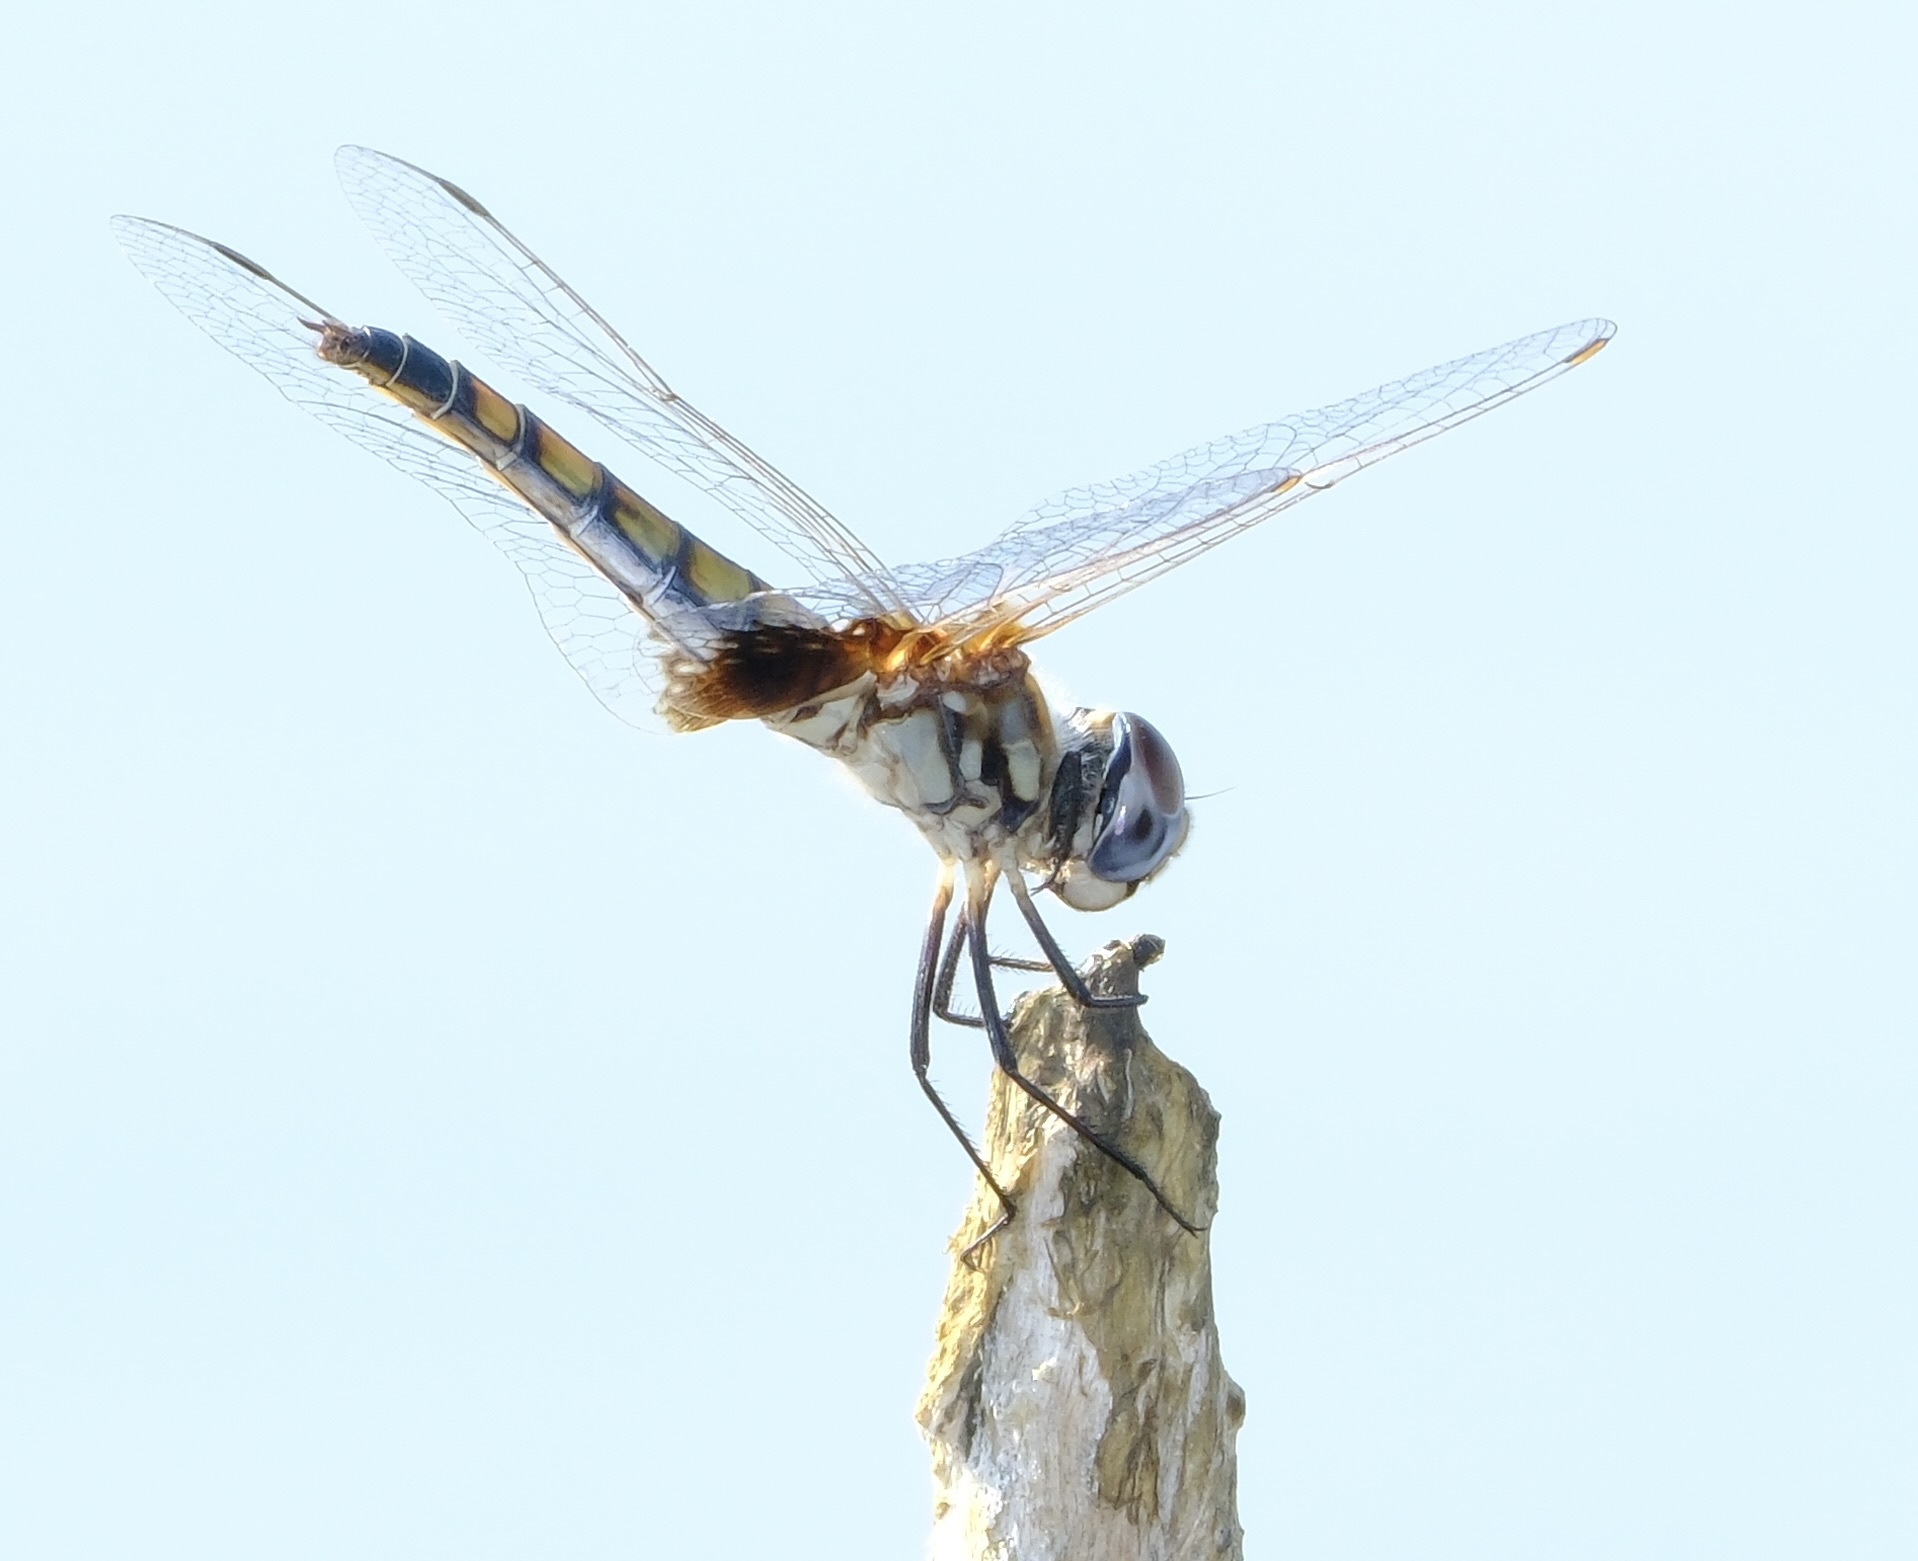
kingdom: Animalia
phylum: Arthropoda
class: Insecta
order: Odonata
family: Libellulidae
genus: Macrodiplax
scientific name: Macrodiplax balteata
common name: Marl pennant
